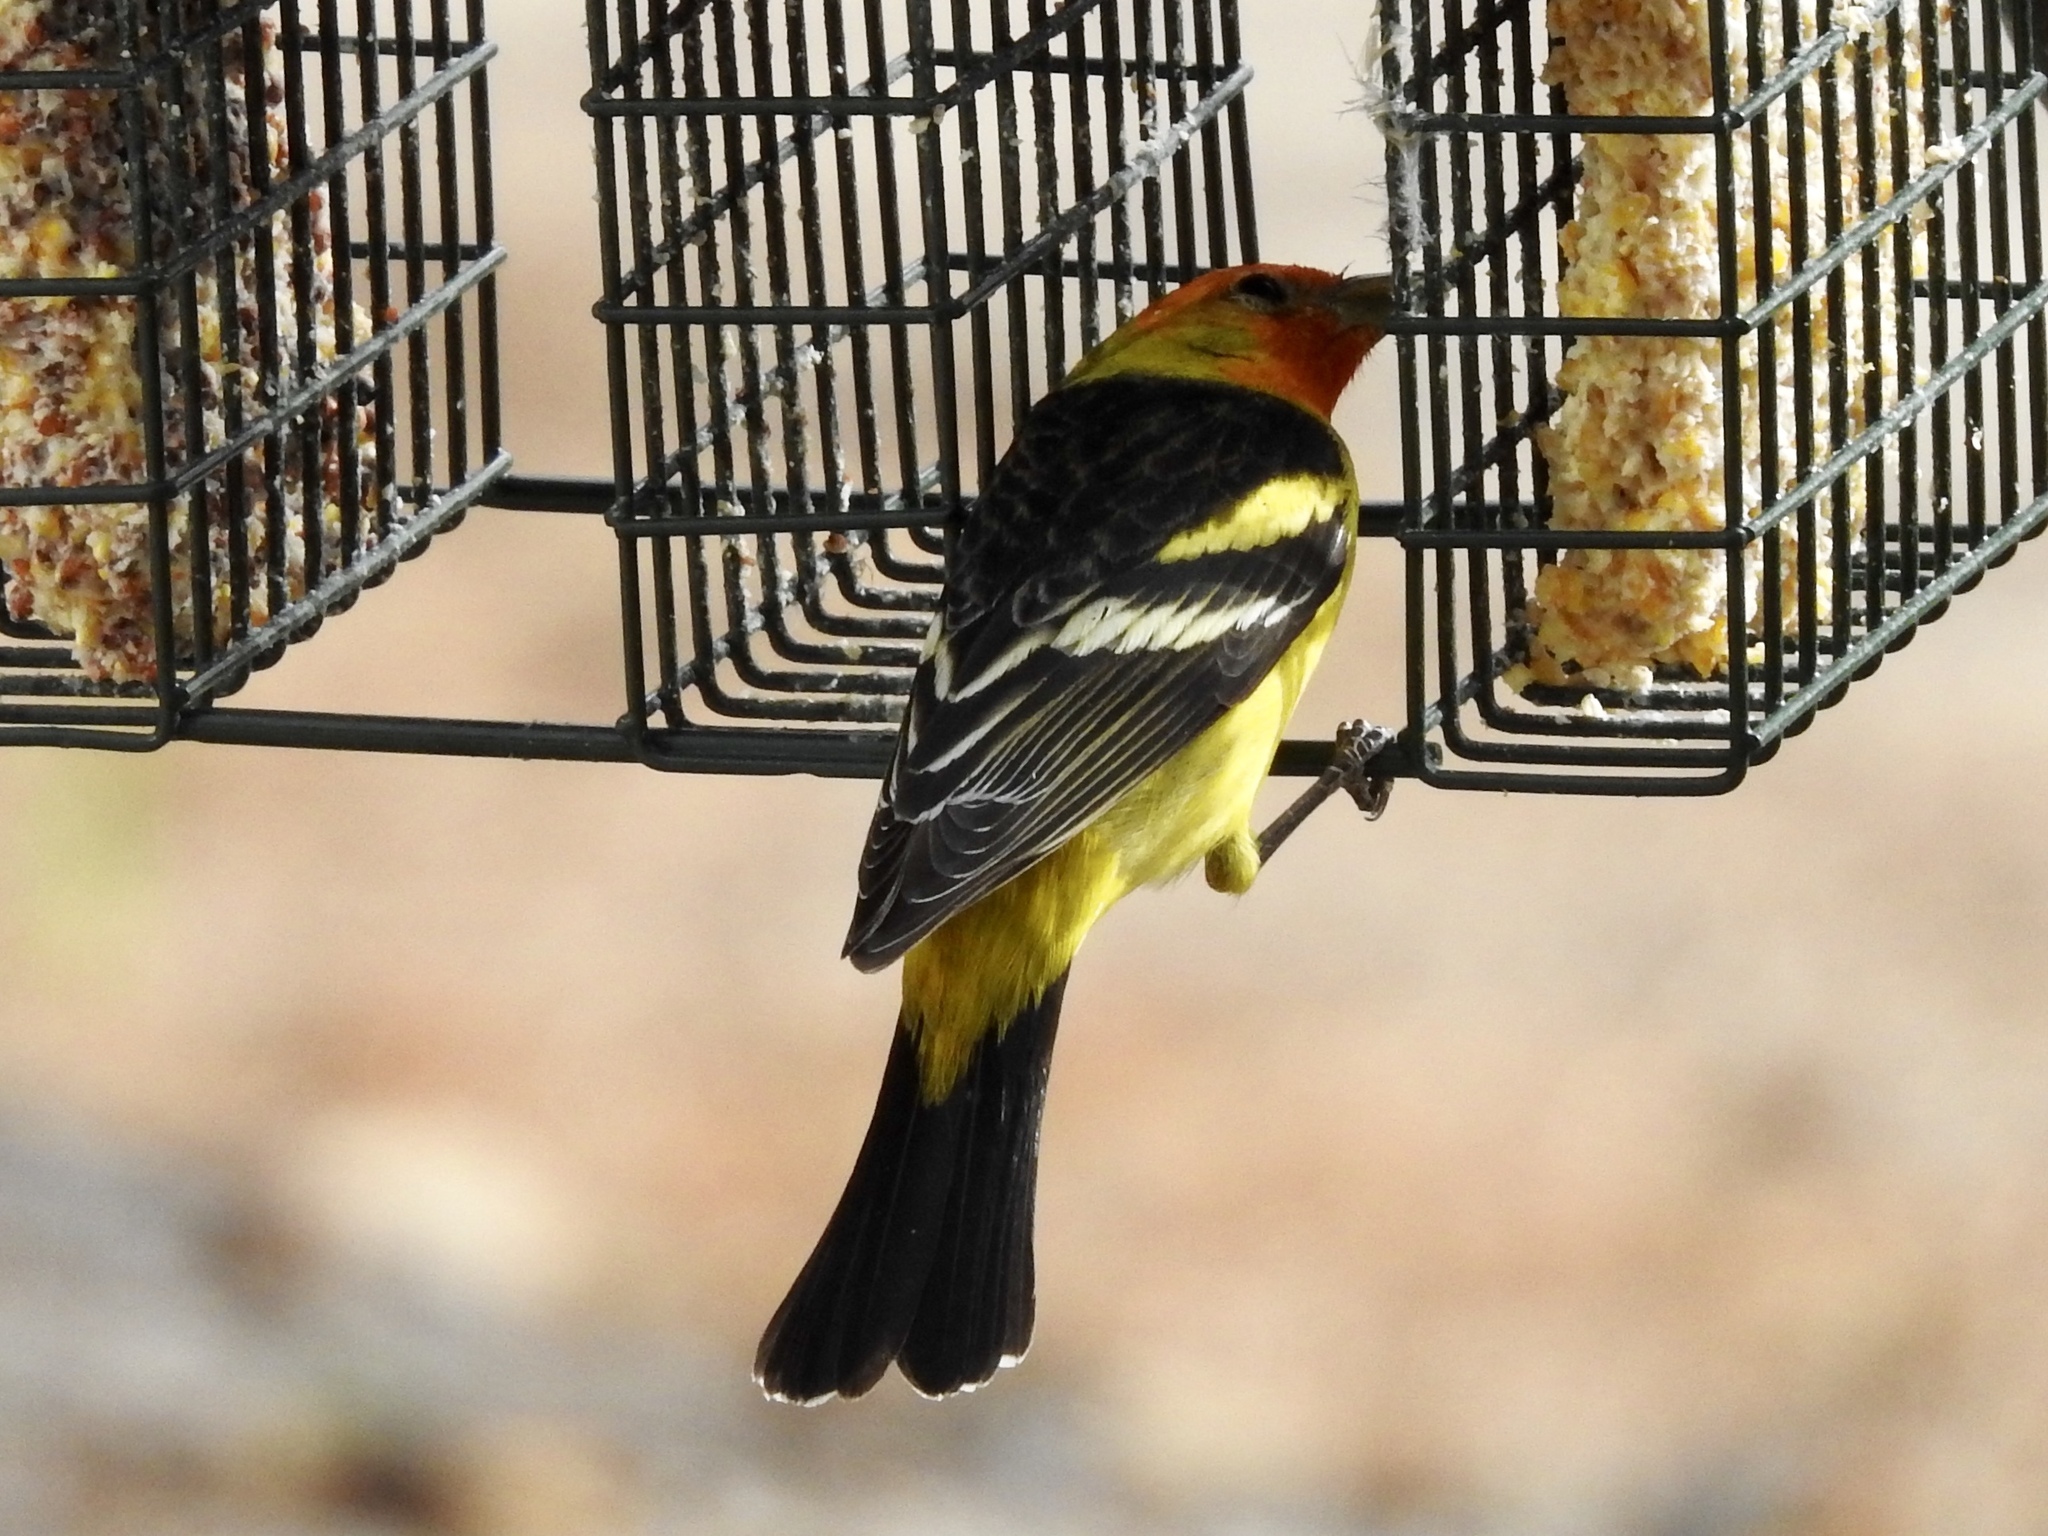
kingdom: Animalia
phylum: Chordata
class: Aves
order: Passeriformes
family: Cardinalidae
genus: Piranga
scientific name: Piranga ludoviciana
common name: Western tanager
